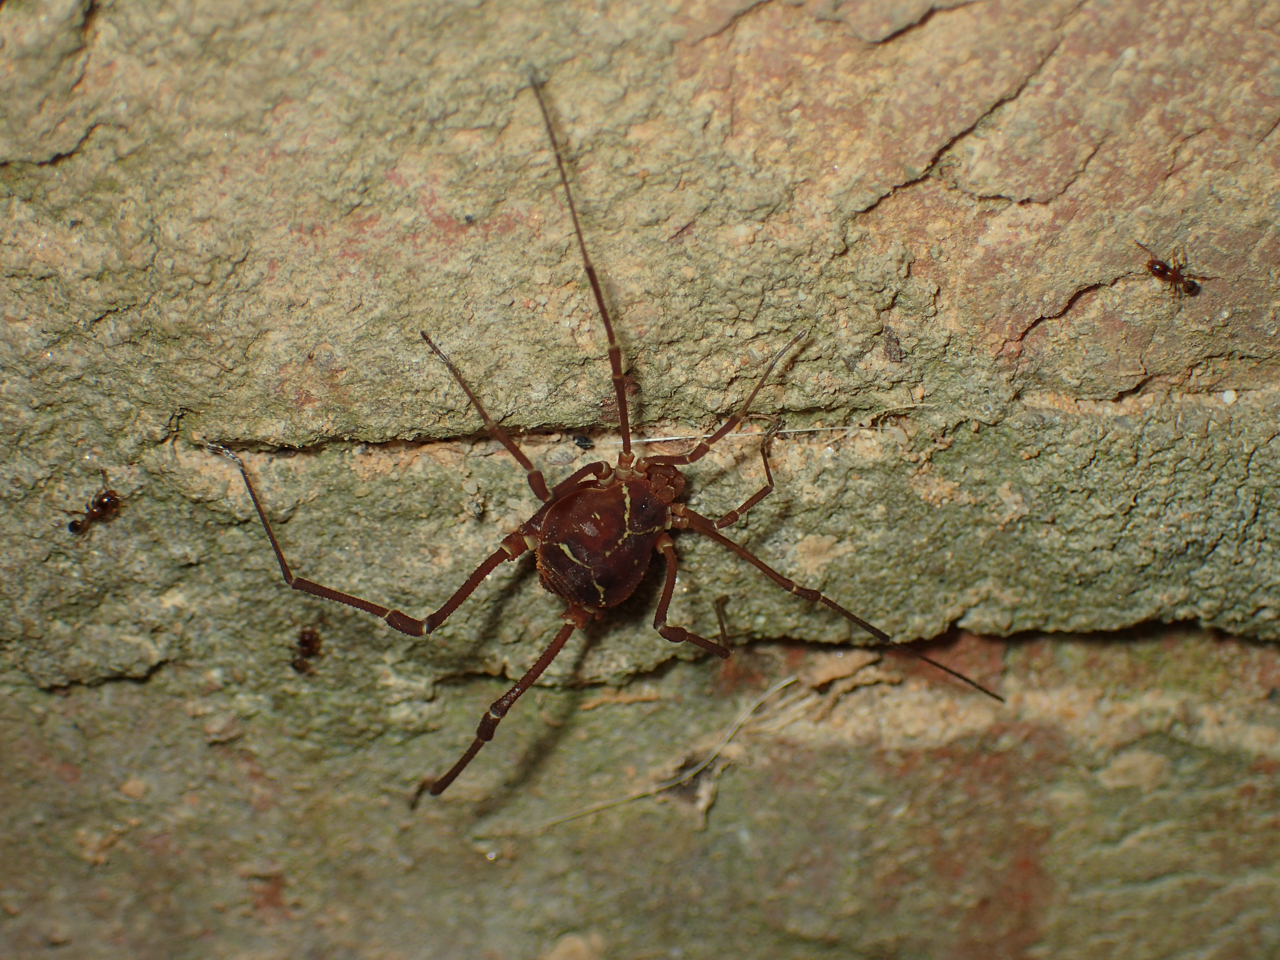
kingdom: Animalia
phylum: Arthropoda
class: Arachnida
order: Opiliones
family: Cosmetidae
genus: Libitioides
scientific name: Libitioides sayi
